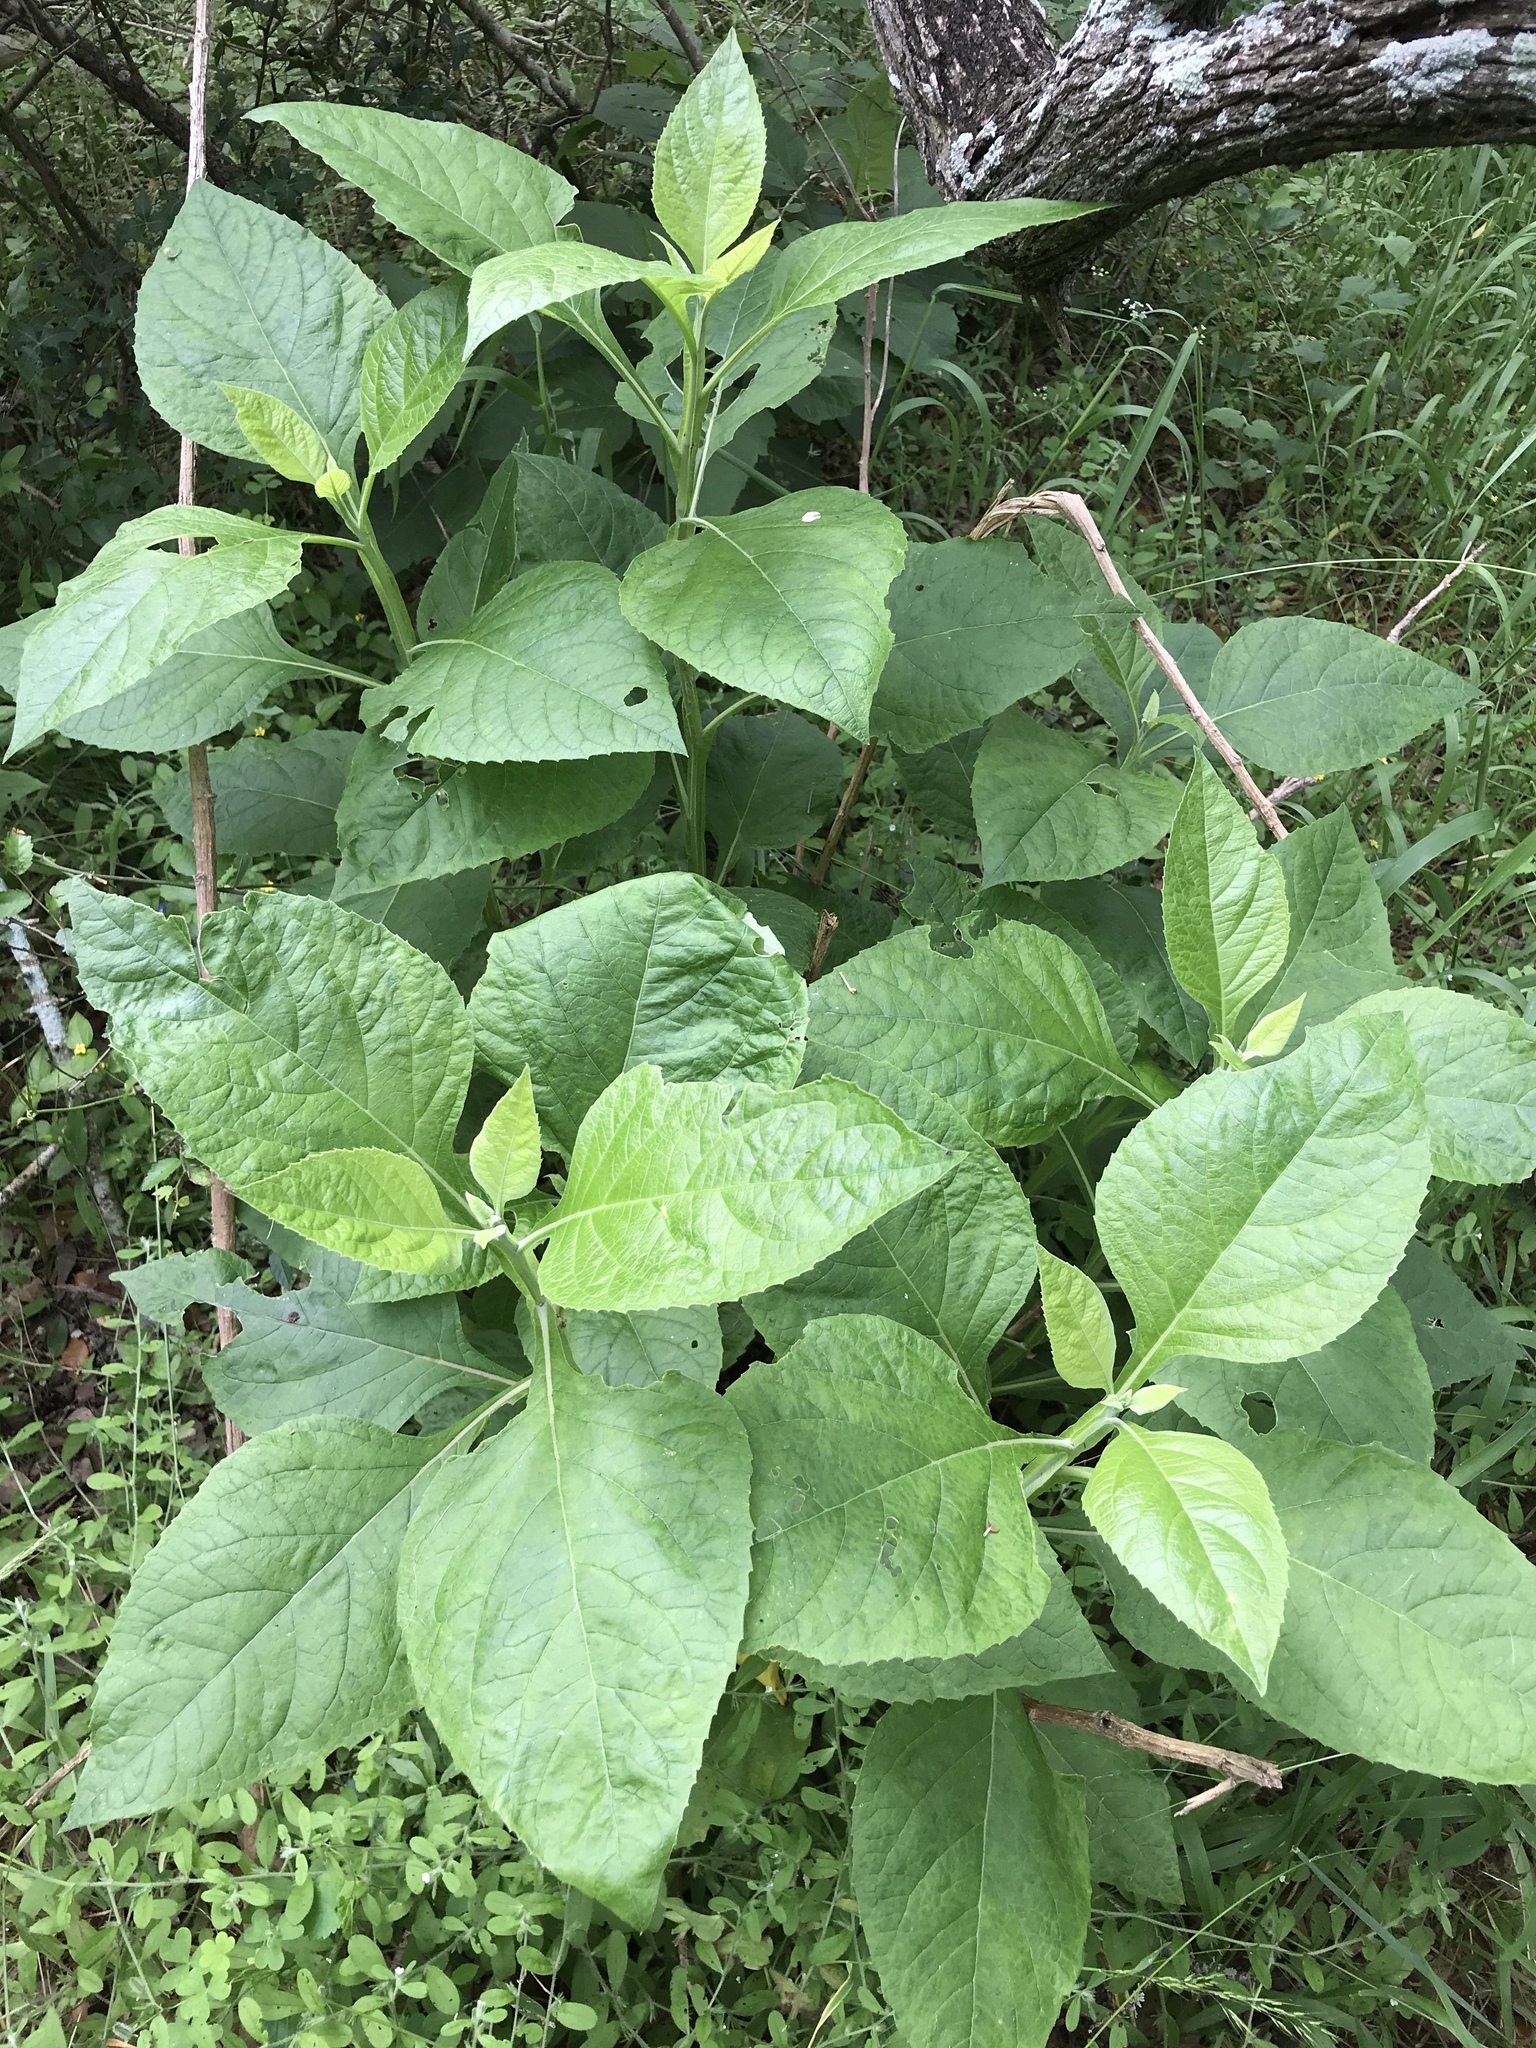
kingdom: Plantae
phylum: Tracheophyta
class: Magnoliopsida
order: Asterales
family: Asteraceae
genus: Verbesina
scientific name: Verbesina virginica
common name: Frostweed
